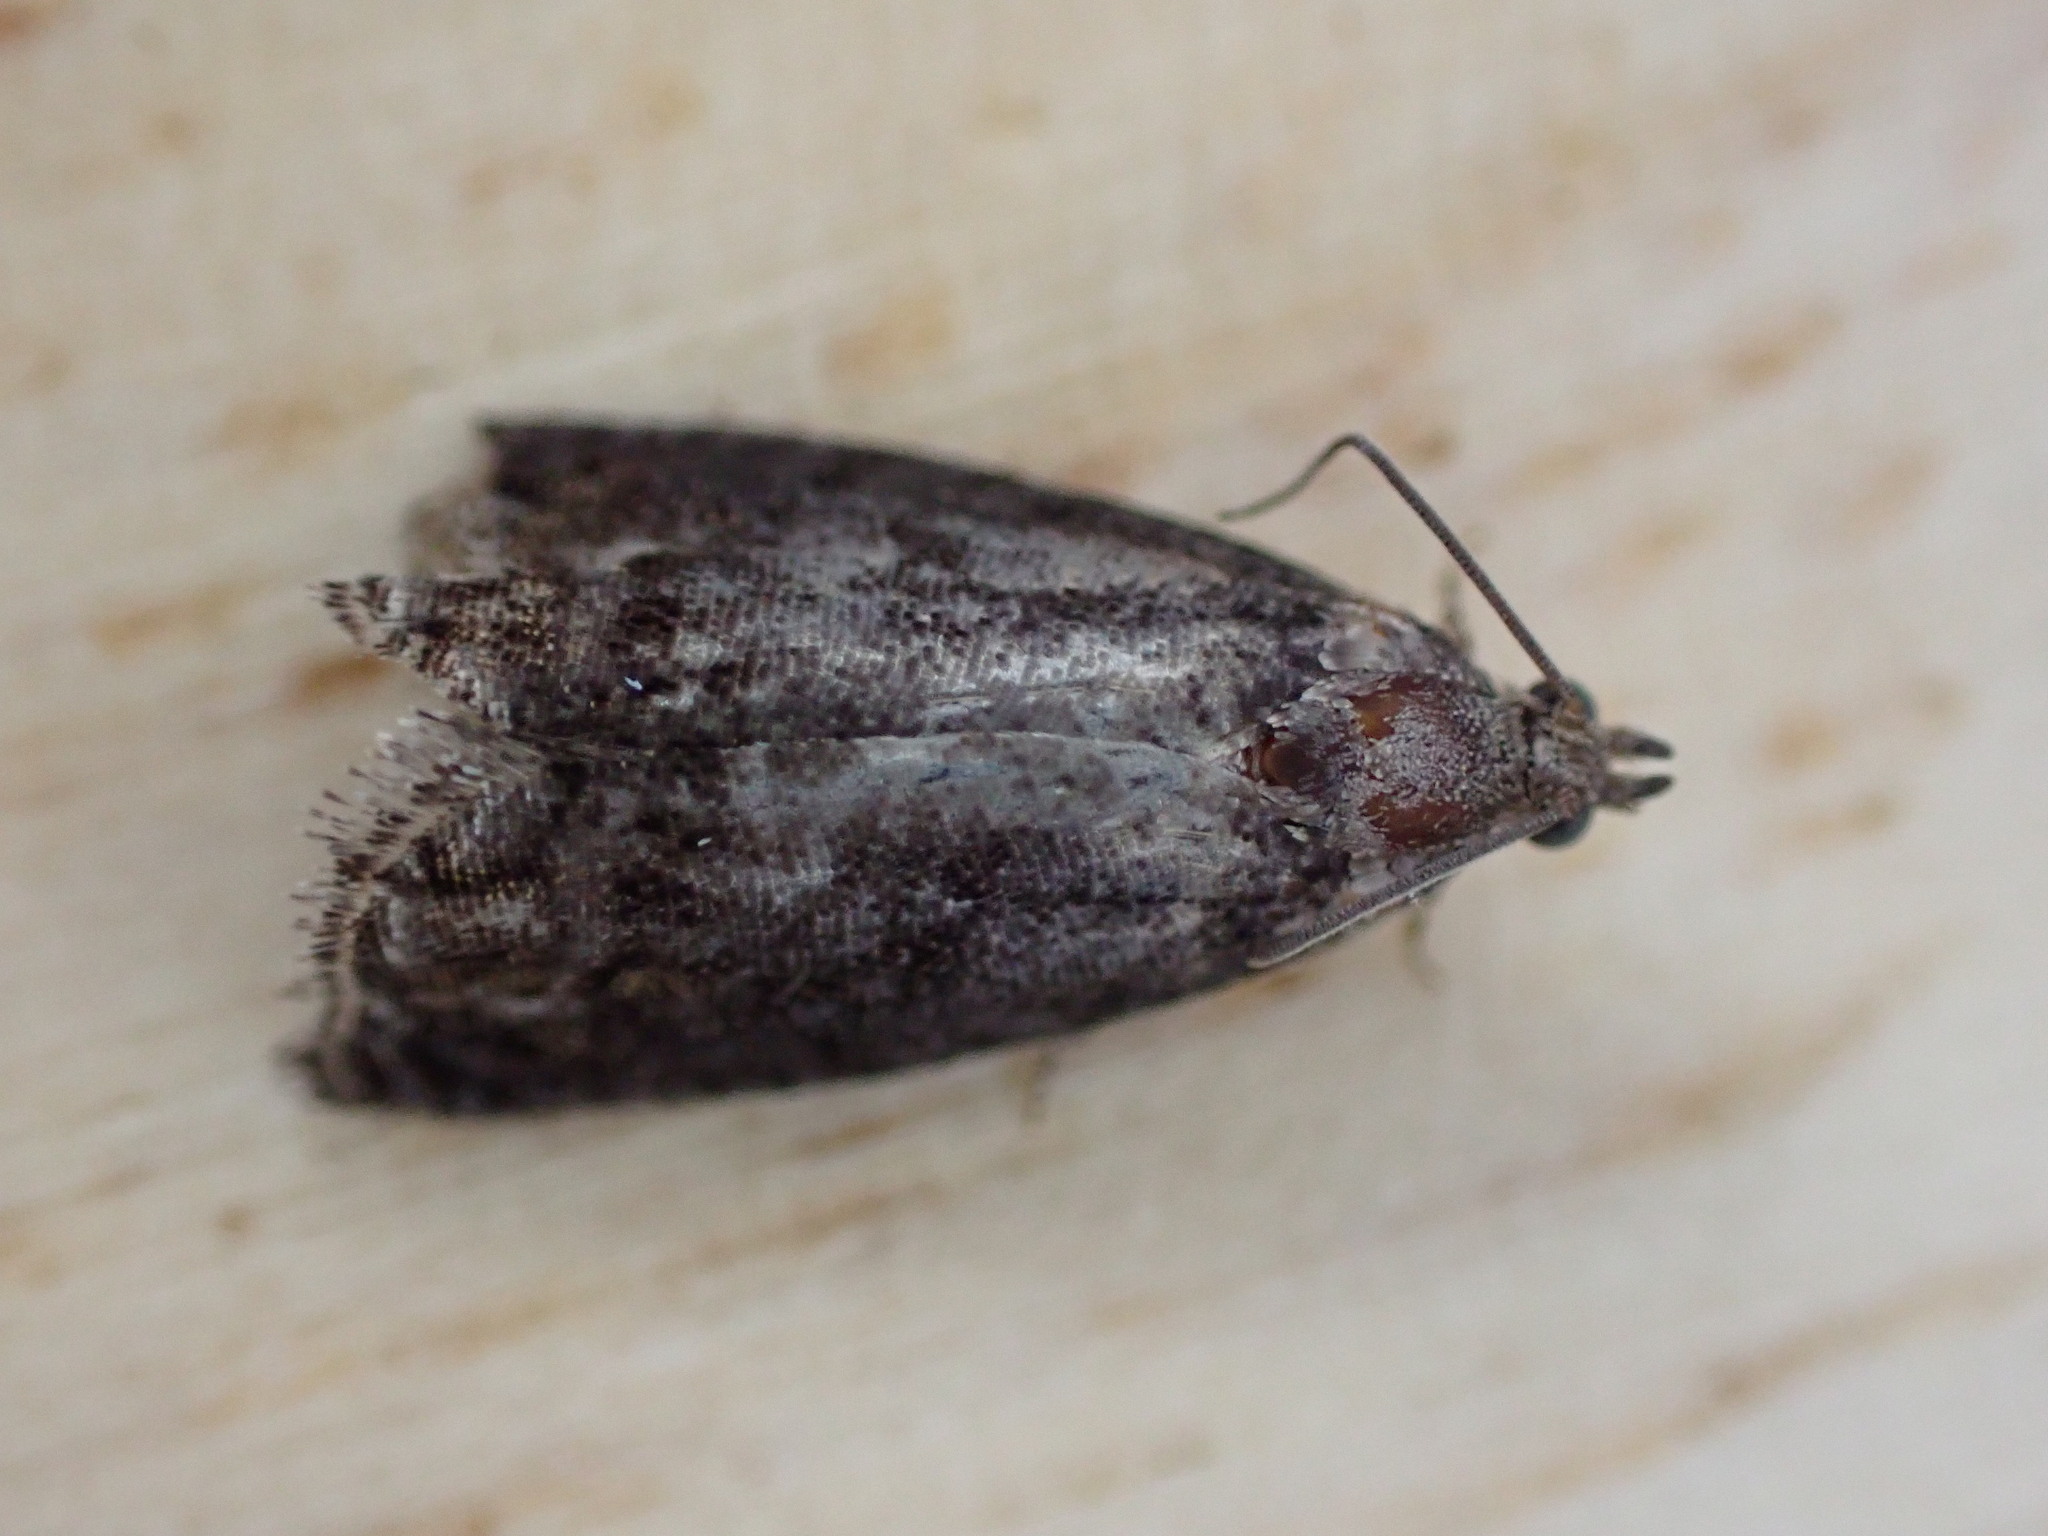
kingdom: Animalia
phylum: Arthropoda
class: Insecta
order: Lepidoptera
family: Tortricidae
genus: Cydia
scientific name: Cydia splendana
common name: De: kastanienwickler, eichenwickler es: oruga de la castaña fr: carpocapse des châtaignes it: cidia o tortrice tardiva delle castagne pt: bichado das castanhas gb: acorn moth, chestnut fruit tortrix
